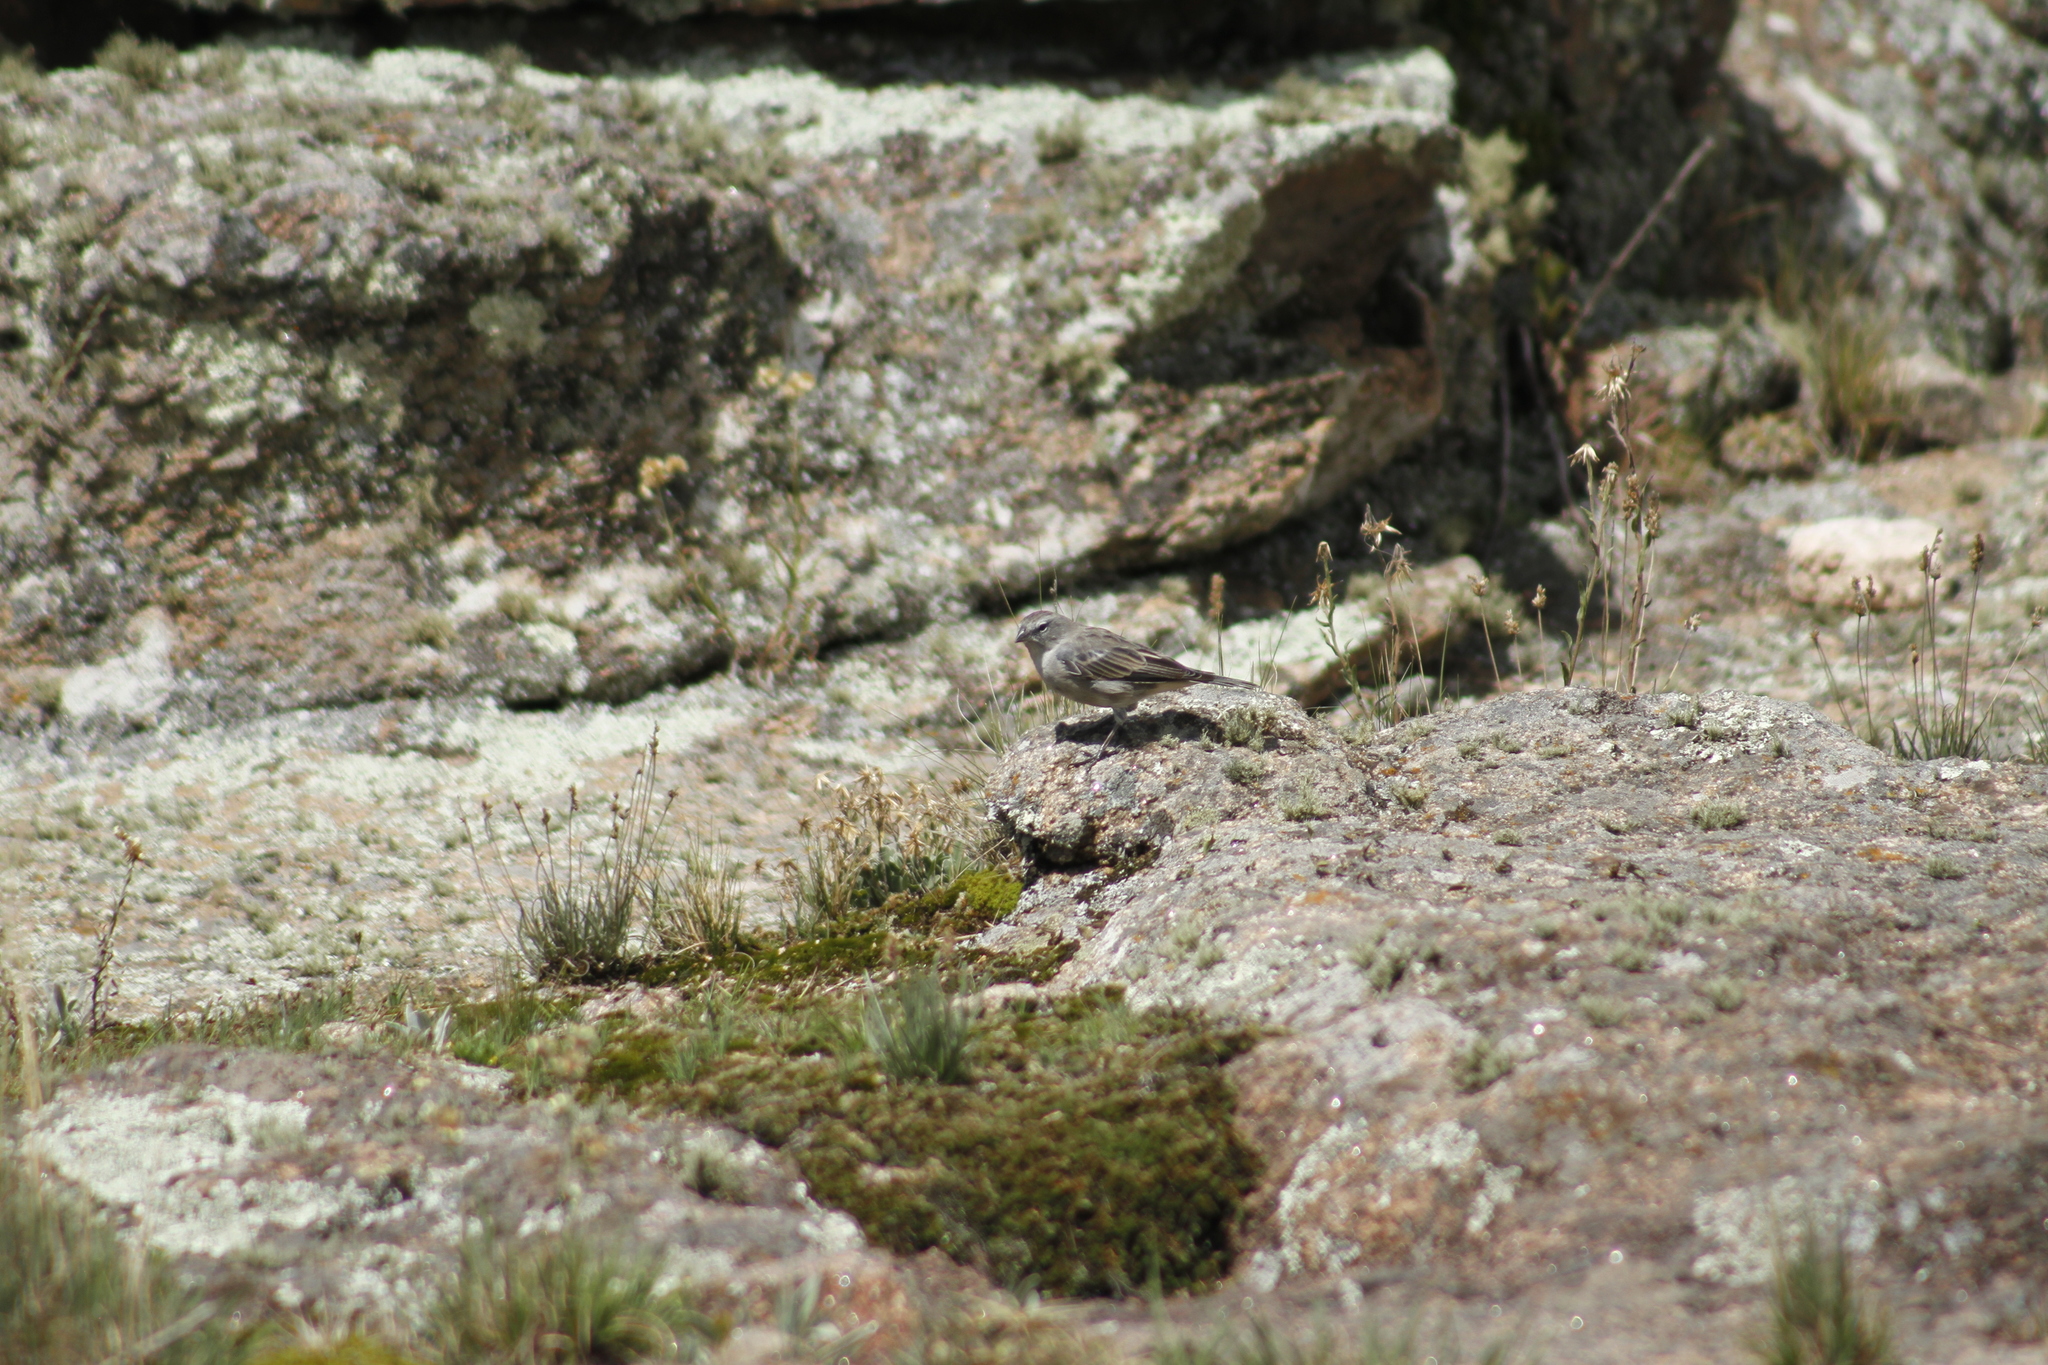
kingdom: Animalia
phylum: Chordata
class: Aves
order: Passeriformes
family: Thraupidae
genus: Geospizopsis
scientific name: Geospizopsis plebejus
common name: Ash-breasted sierra-finch
